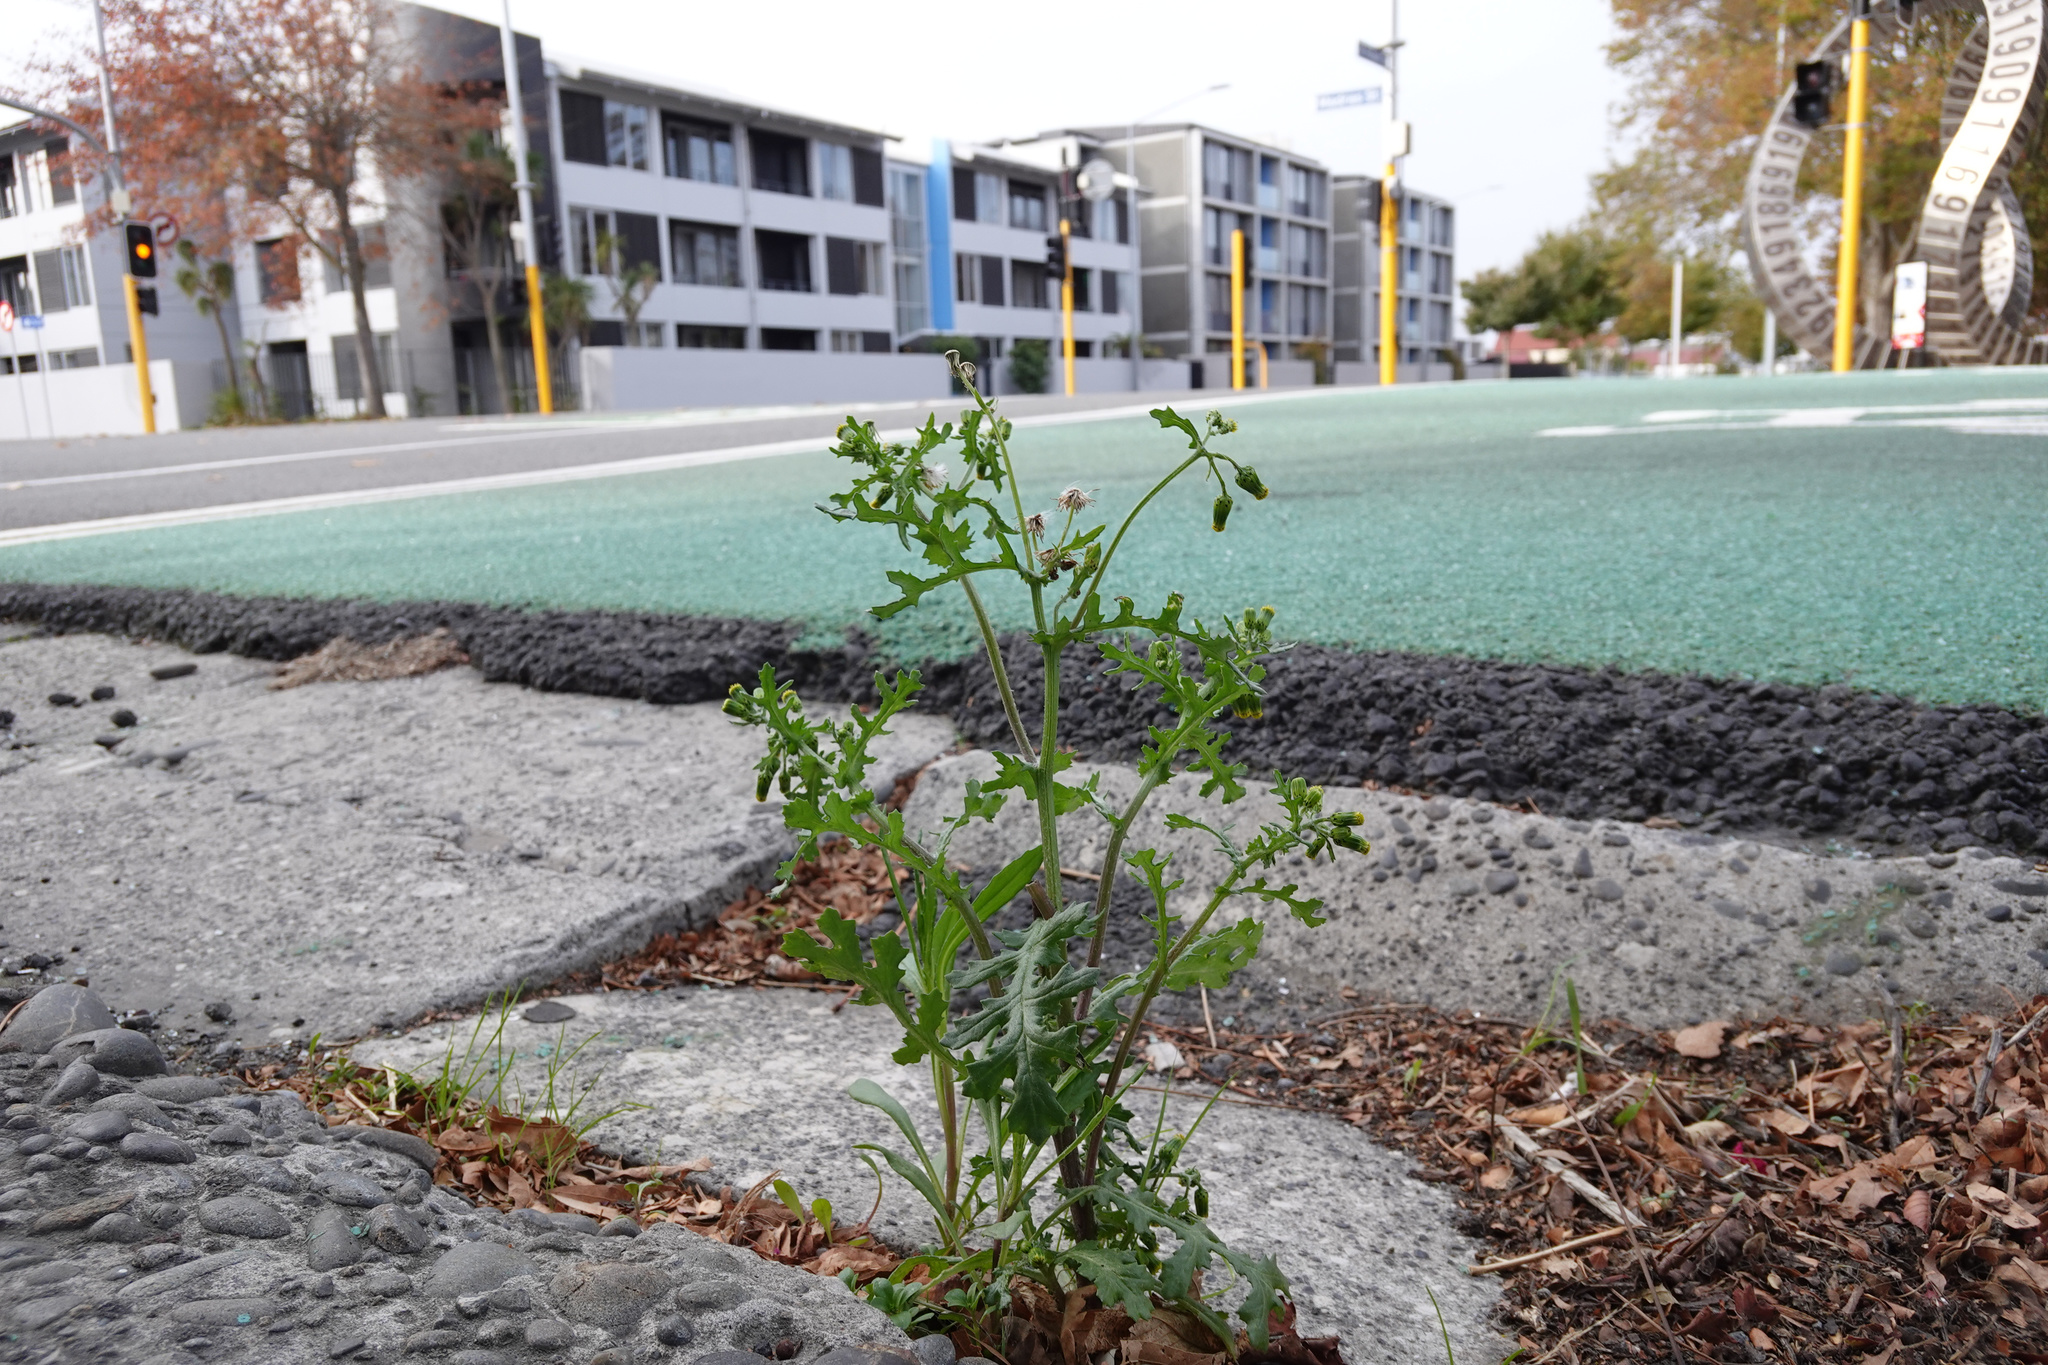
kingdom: Plantae
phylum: Tracheophyta
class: Magnoliopsida
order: Asterales
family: Asteraceae
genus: Senecio
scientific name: Senecio vulgaris
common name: Old-man-in-the-spring
